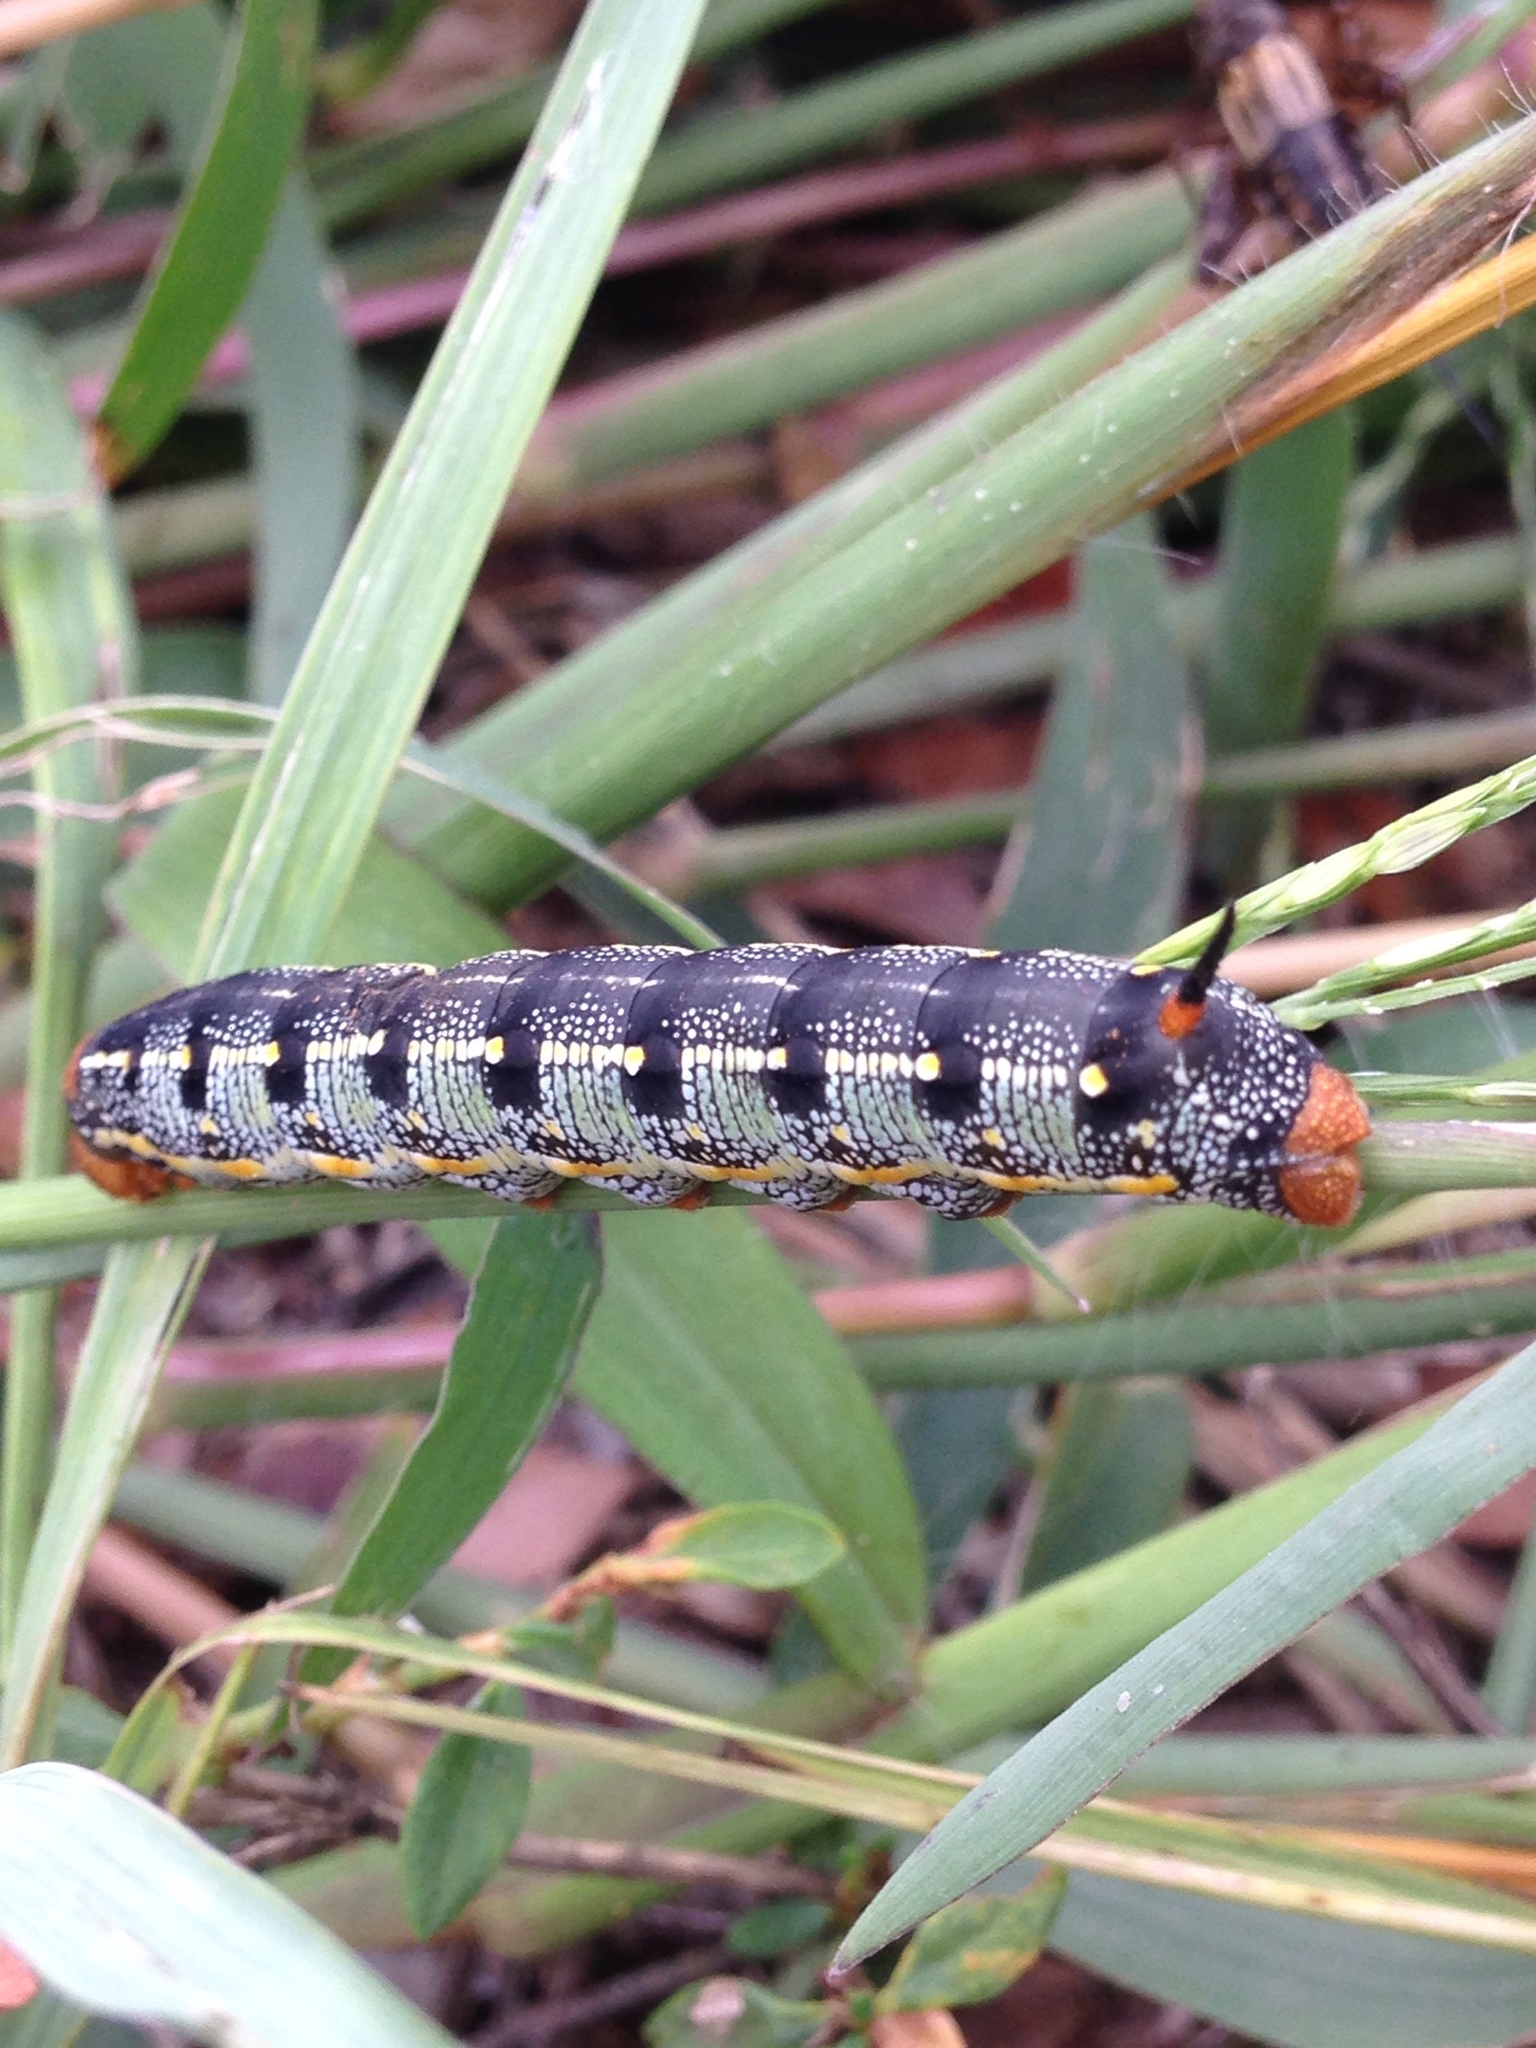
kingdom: Animalia
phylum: Arthropoda
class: Insecta
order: Lepidoptera
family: Sphingidae
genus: Hyles
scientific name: Hyles lineata
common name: White-lined sphinx
